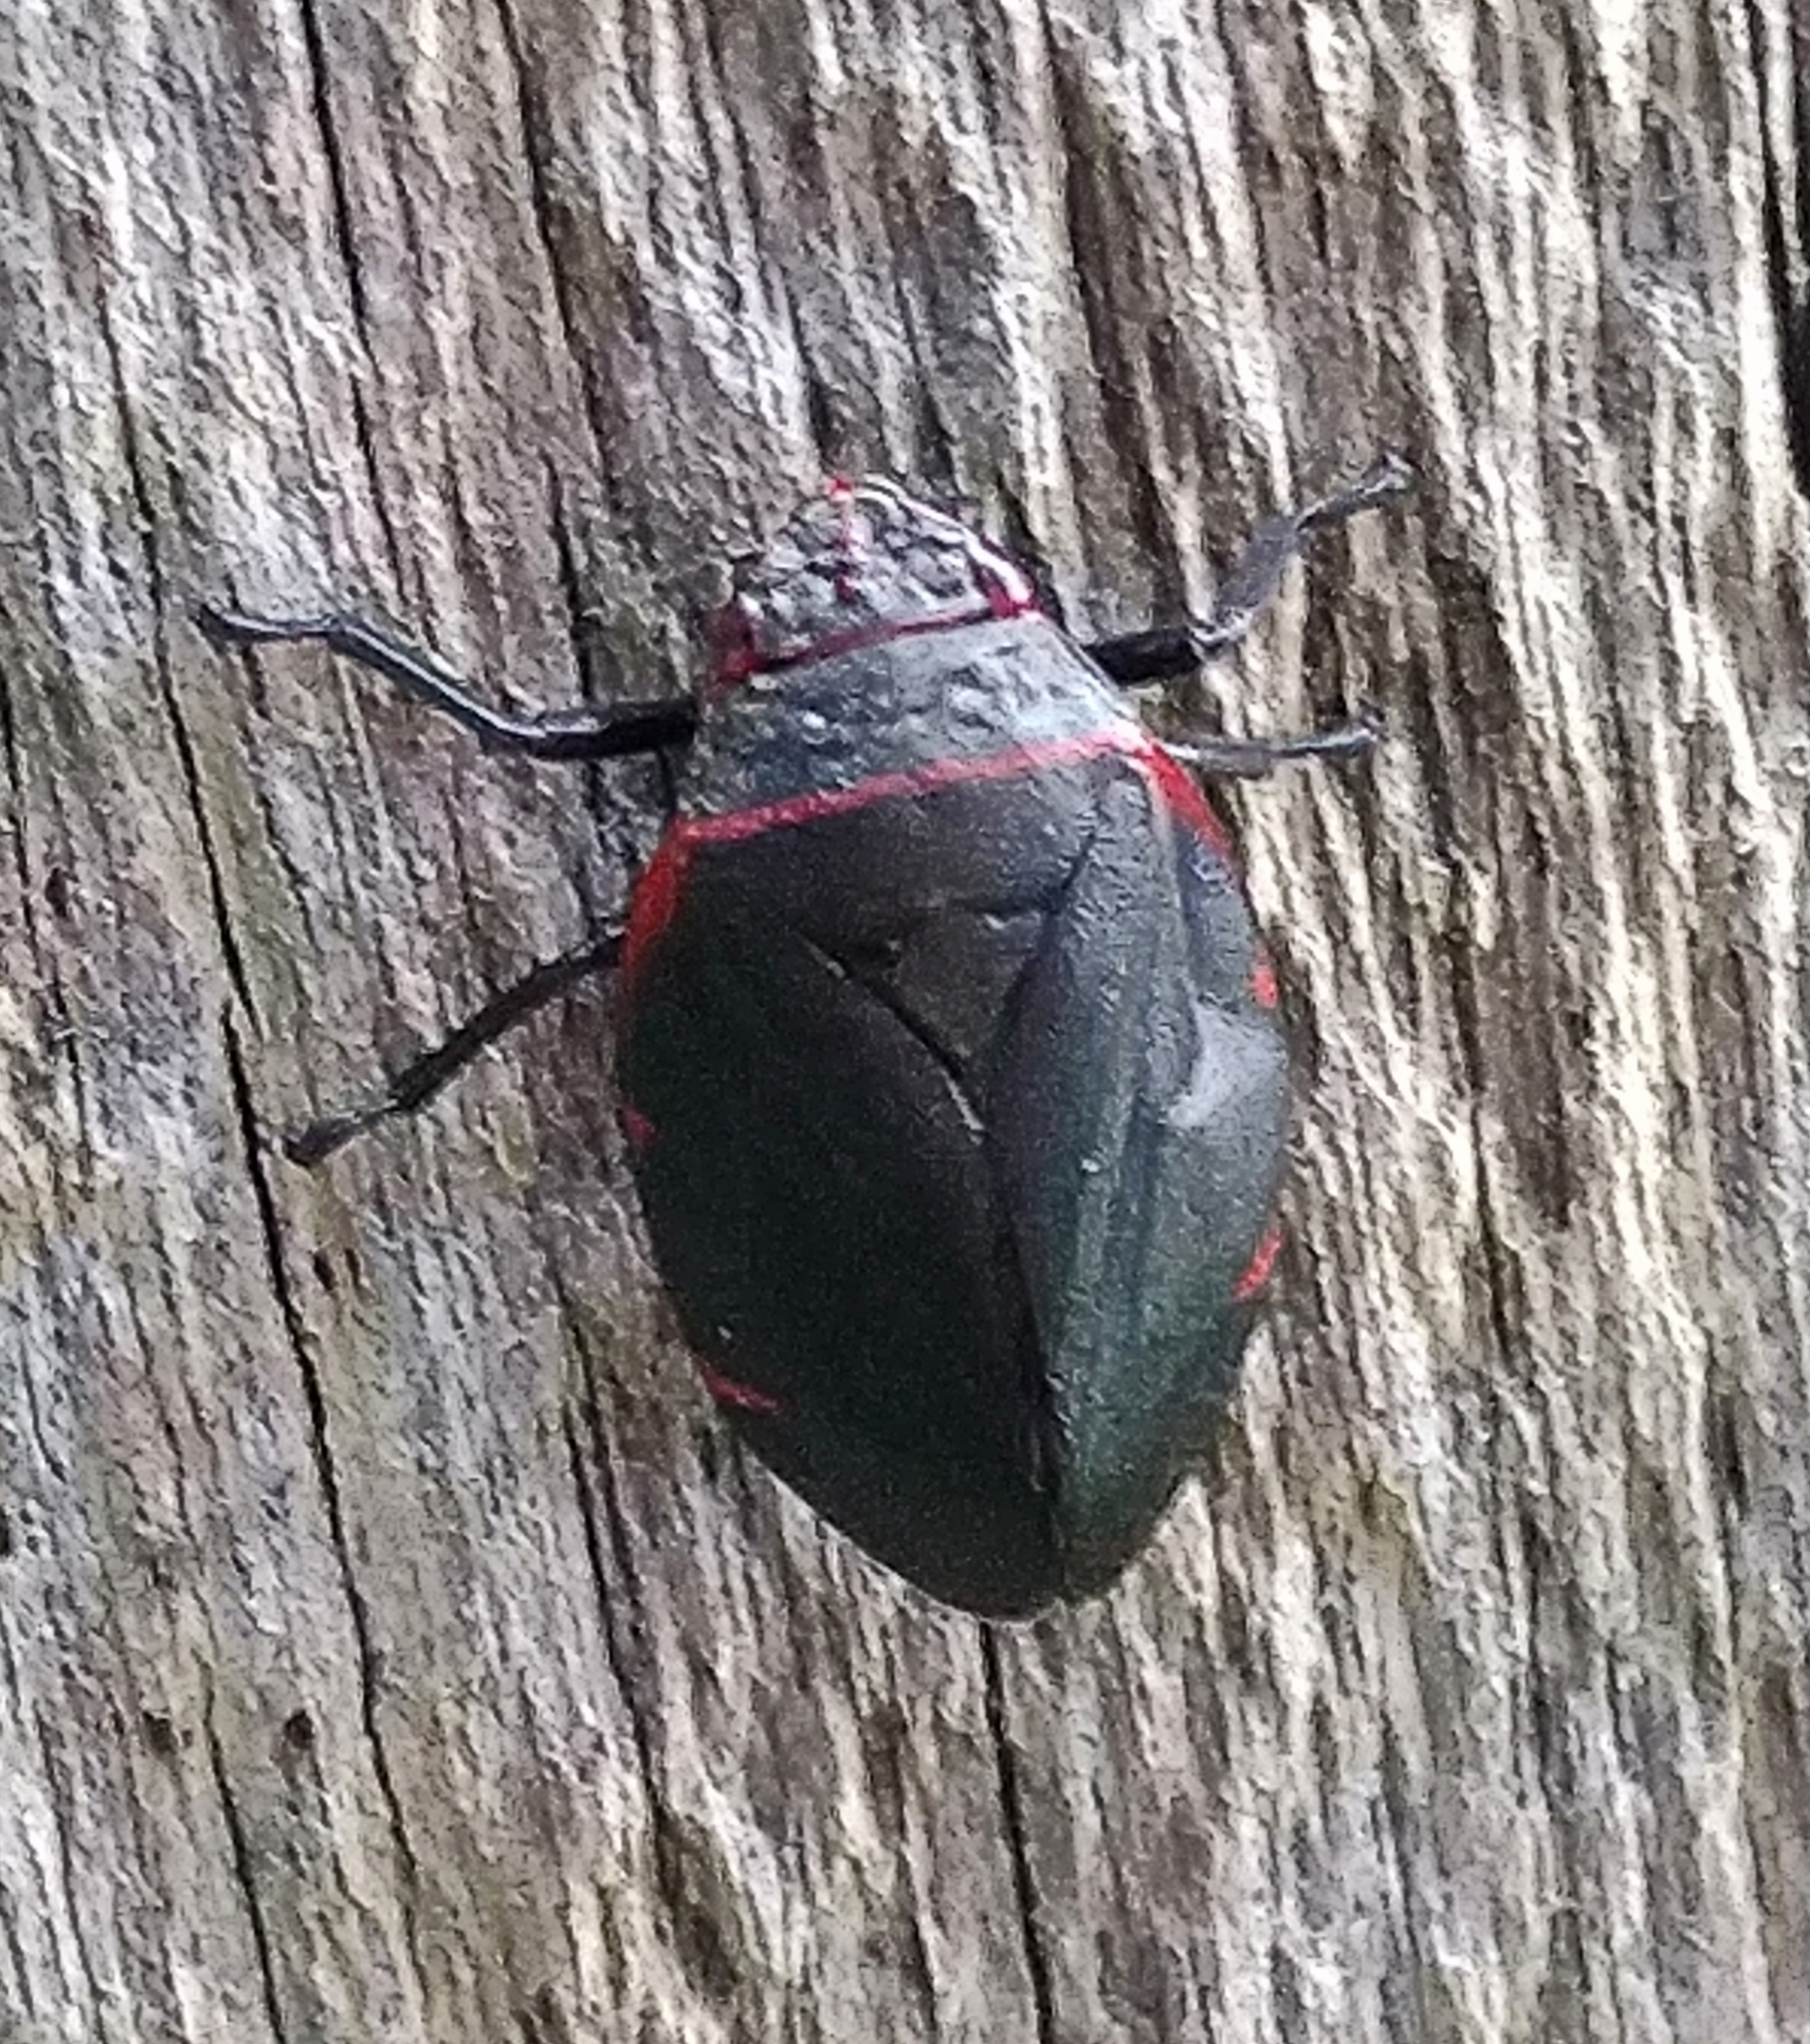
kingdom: Animalia
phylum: Arthropoda
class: Insecta
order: Hemiptera
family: Cercopidae
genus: Prosapia
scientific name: Prosapia
